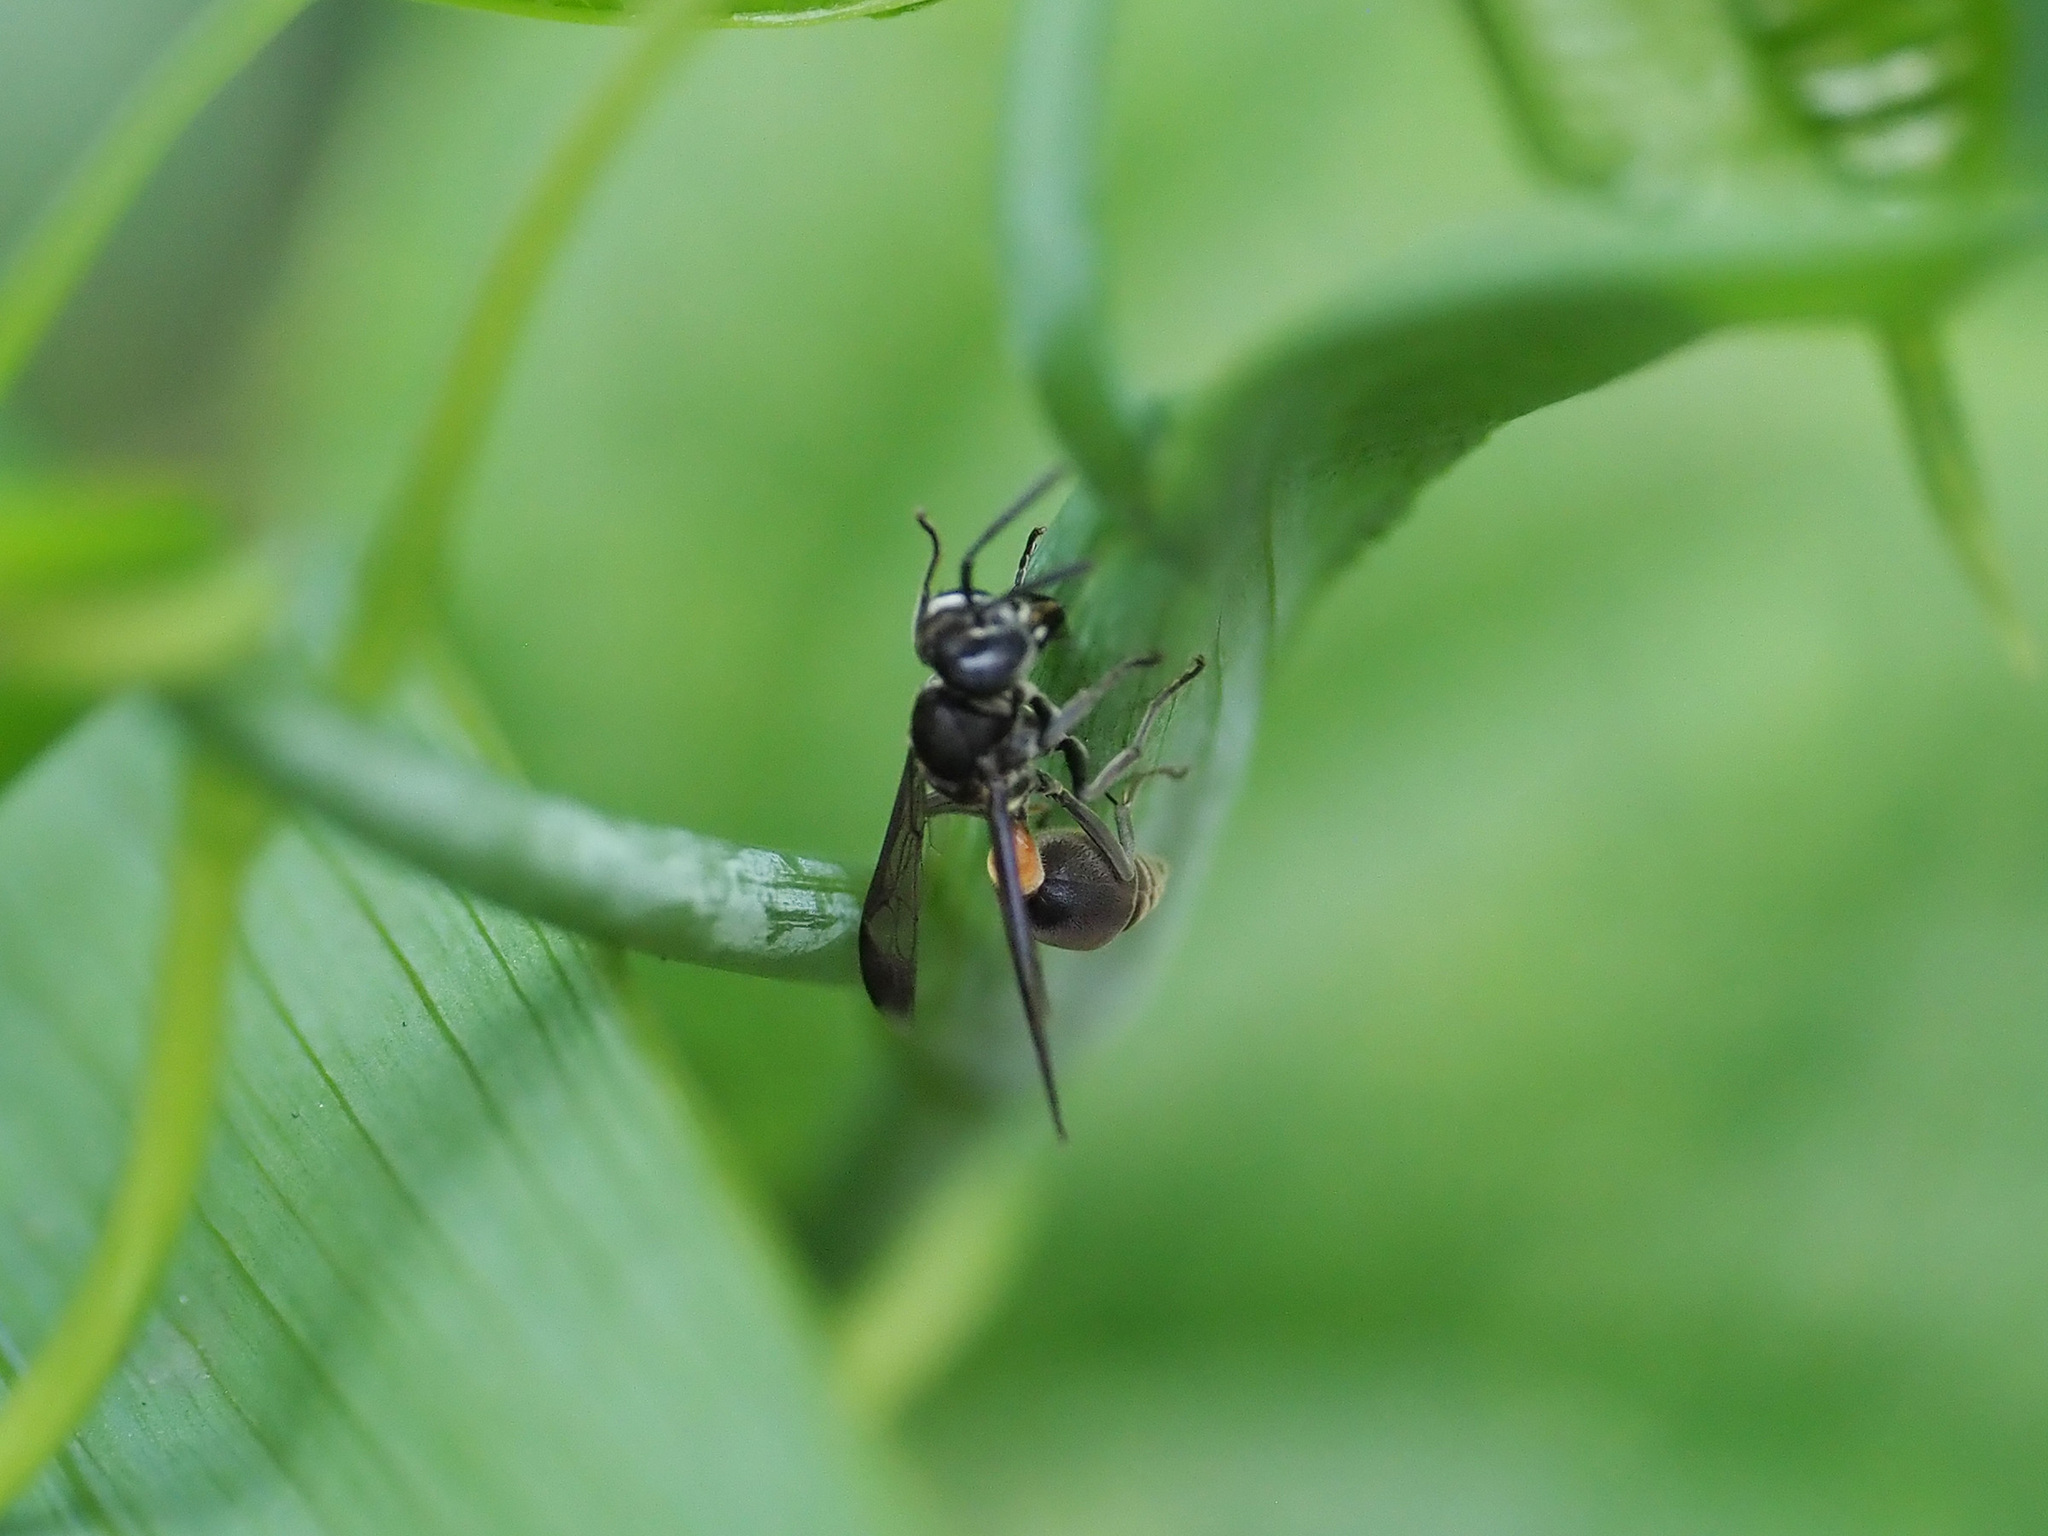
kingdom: Animalia
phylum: Arthropoda
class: Insecta
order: Hymenoptera
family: Vespidae
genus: Ropalidia
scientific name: Ropalidia sumatrae
